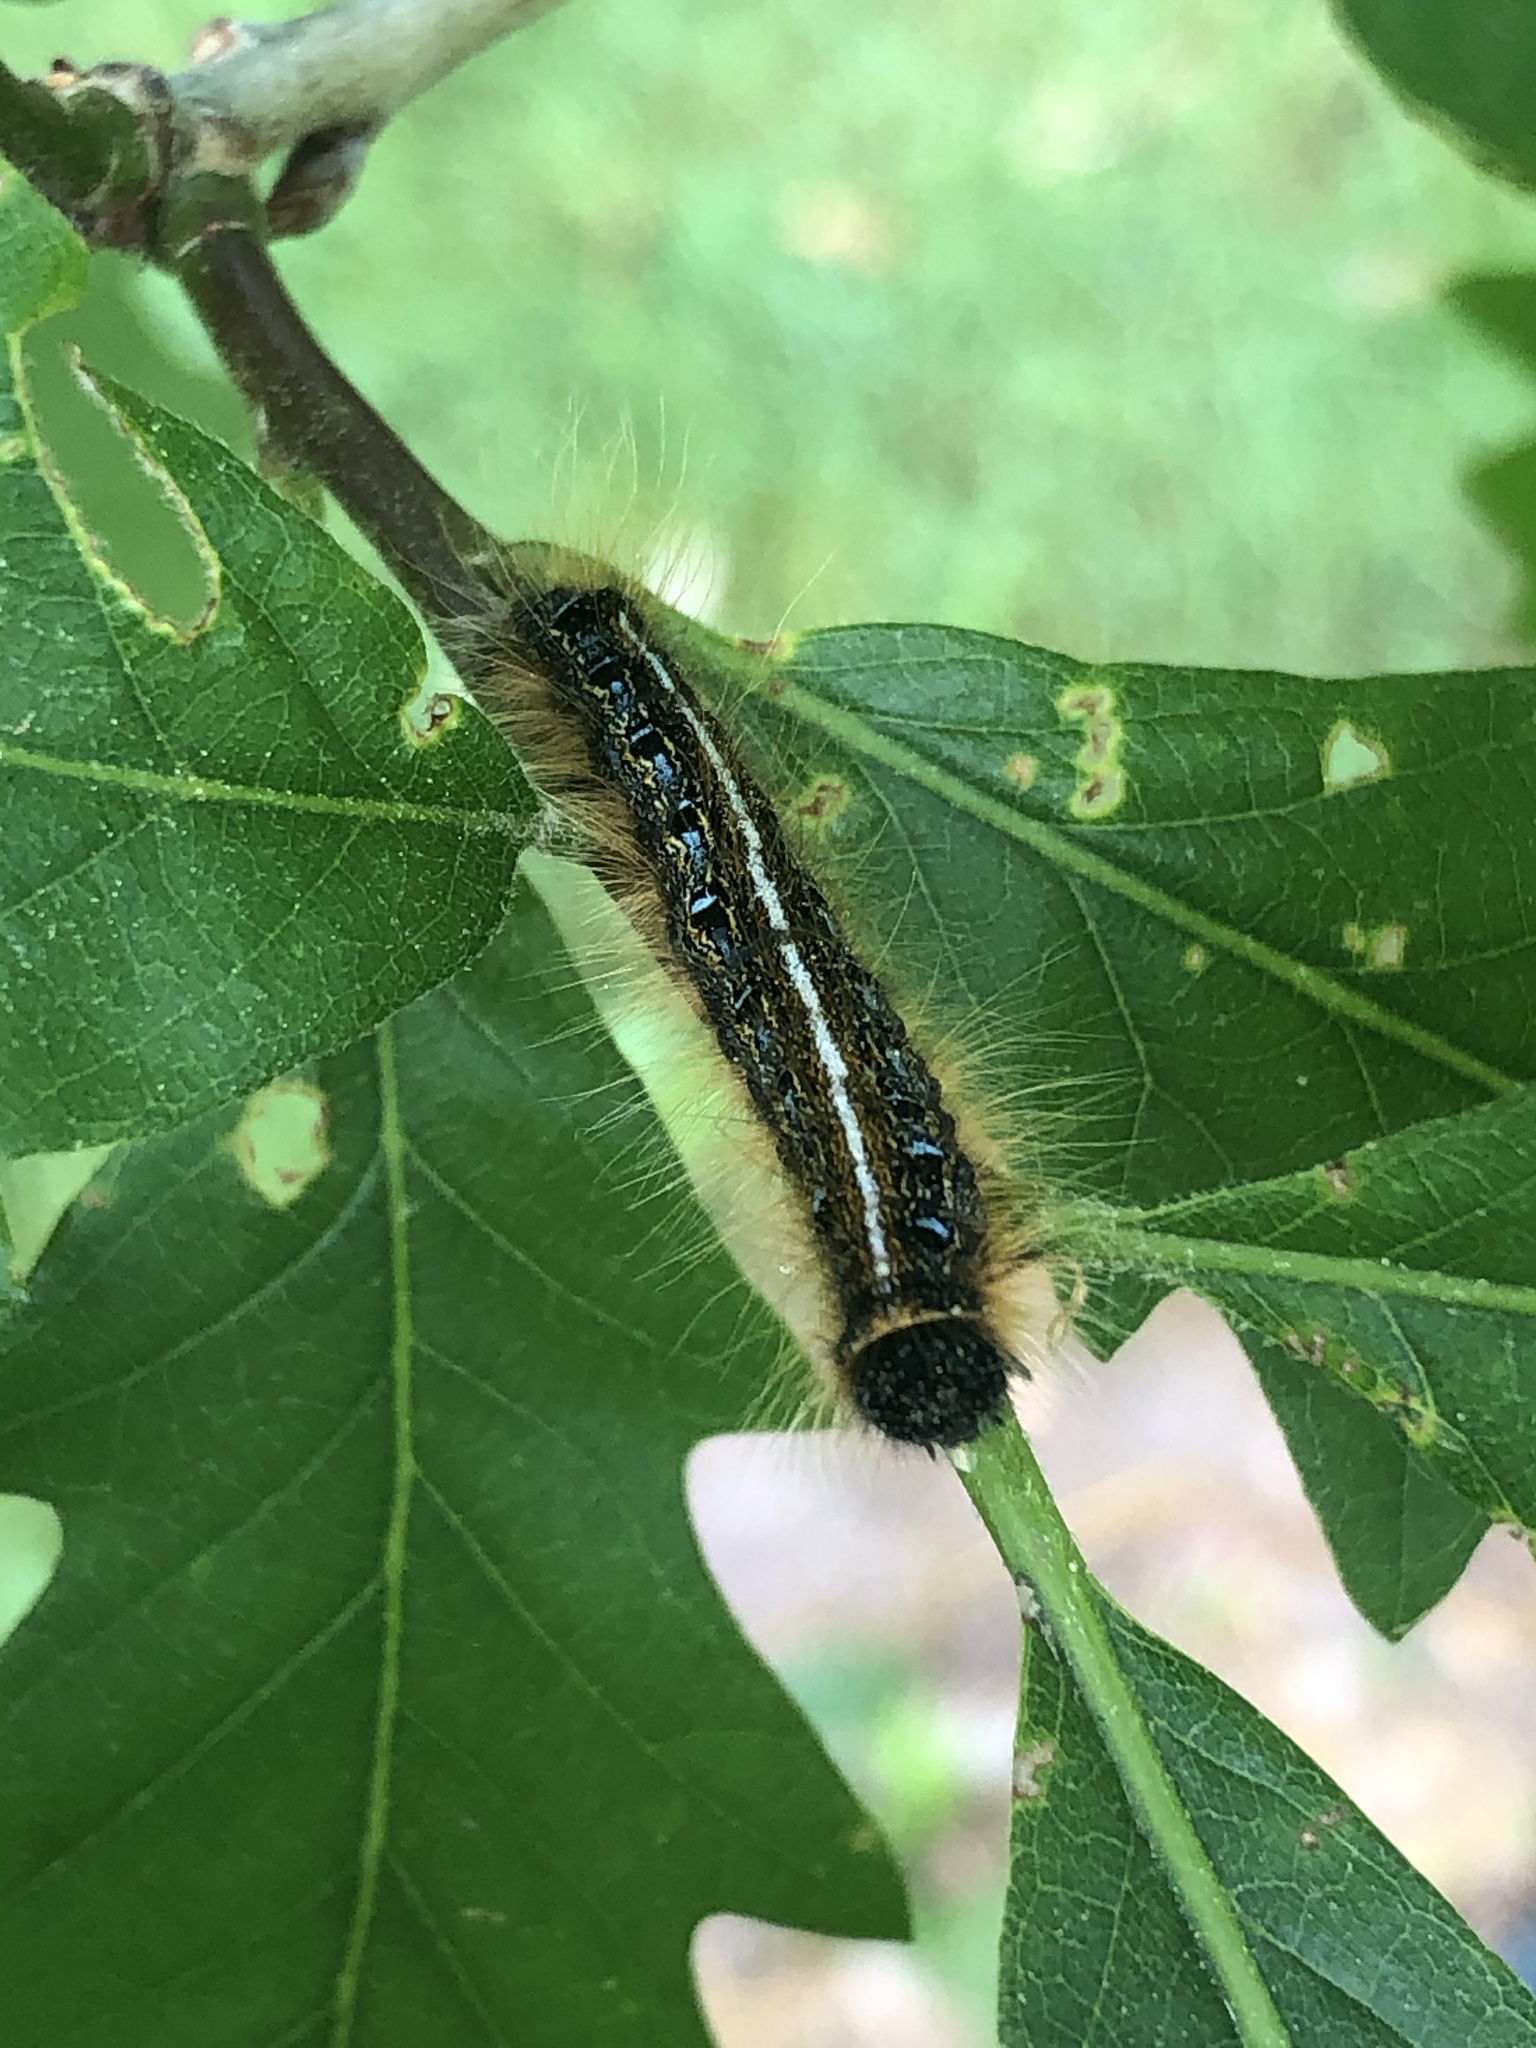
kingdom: Animalia
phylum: Arthropoda
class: Insecta
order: Lepidoptera
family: Lasiocampidae
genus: Malacosoma
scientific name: Malacosoma americana
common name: Eastern tent caterpillar moth
